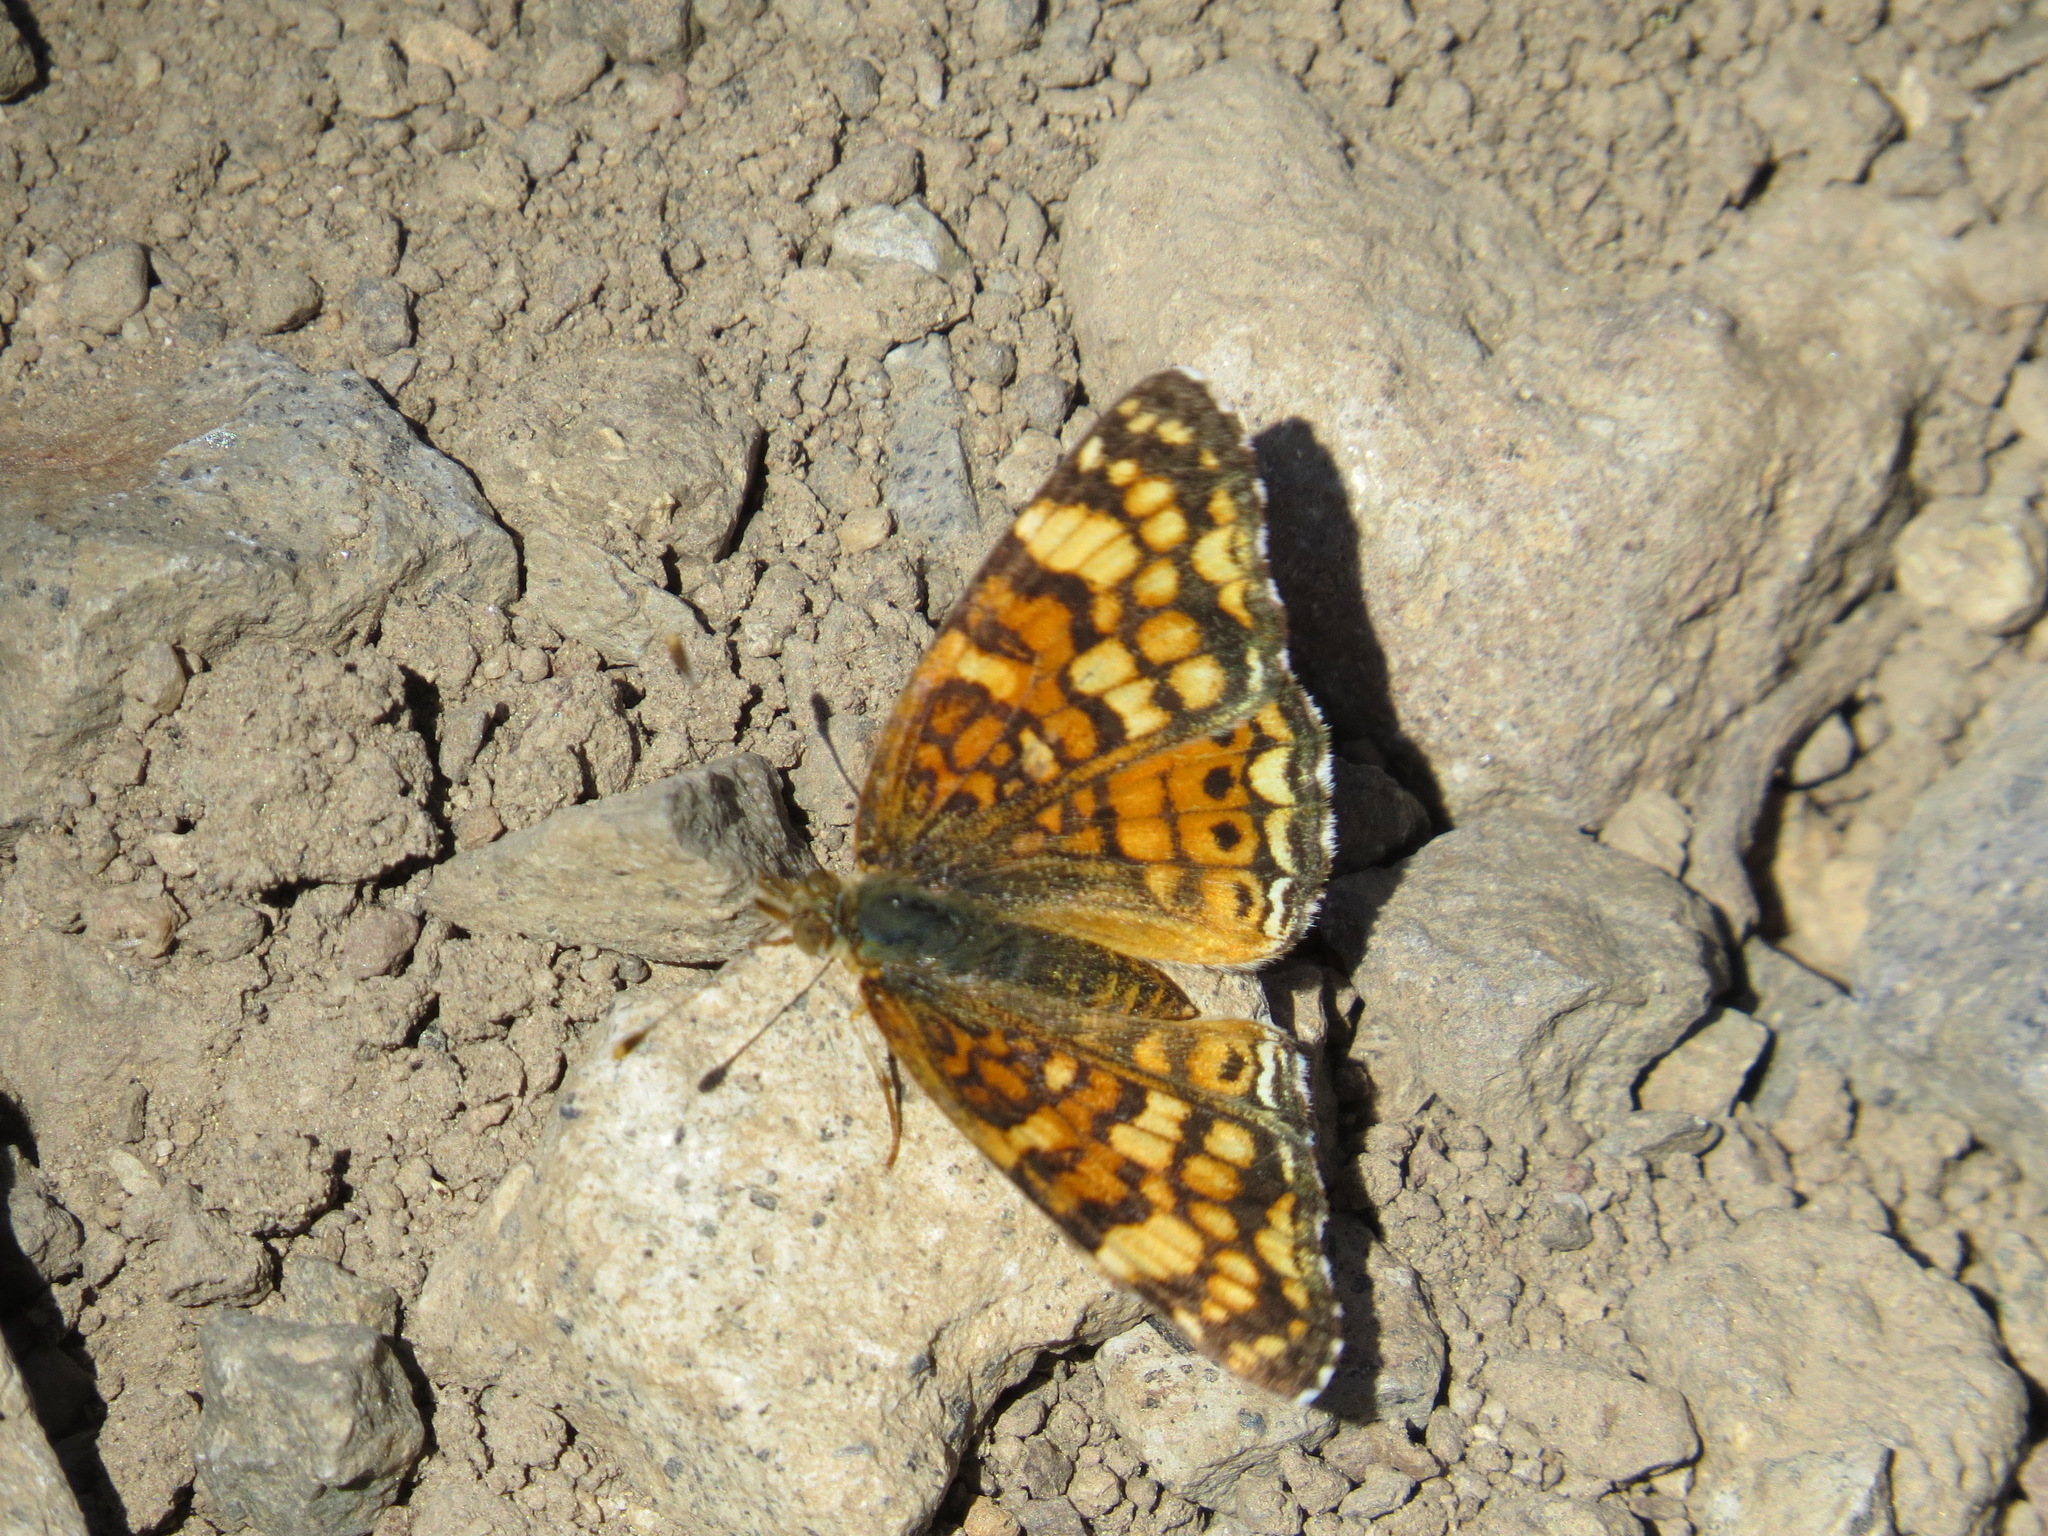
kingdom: Animalia
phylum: Arthropoda
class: Insecta
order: Lepidoptera
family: Nymphalidae
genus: Eresia
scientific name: Eresia aveyrona
